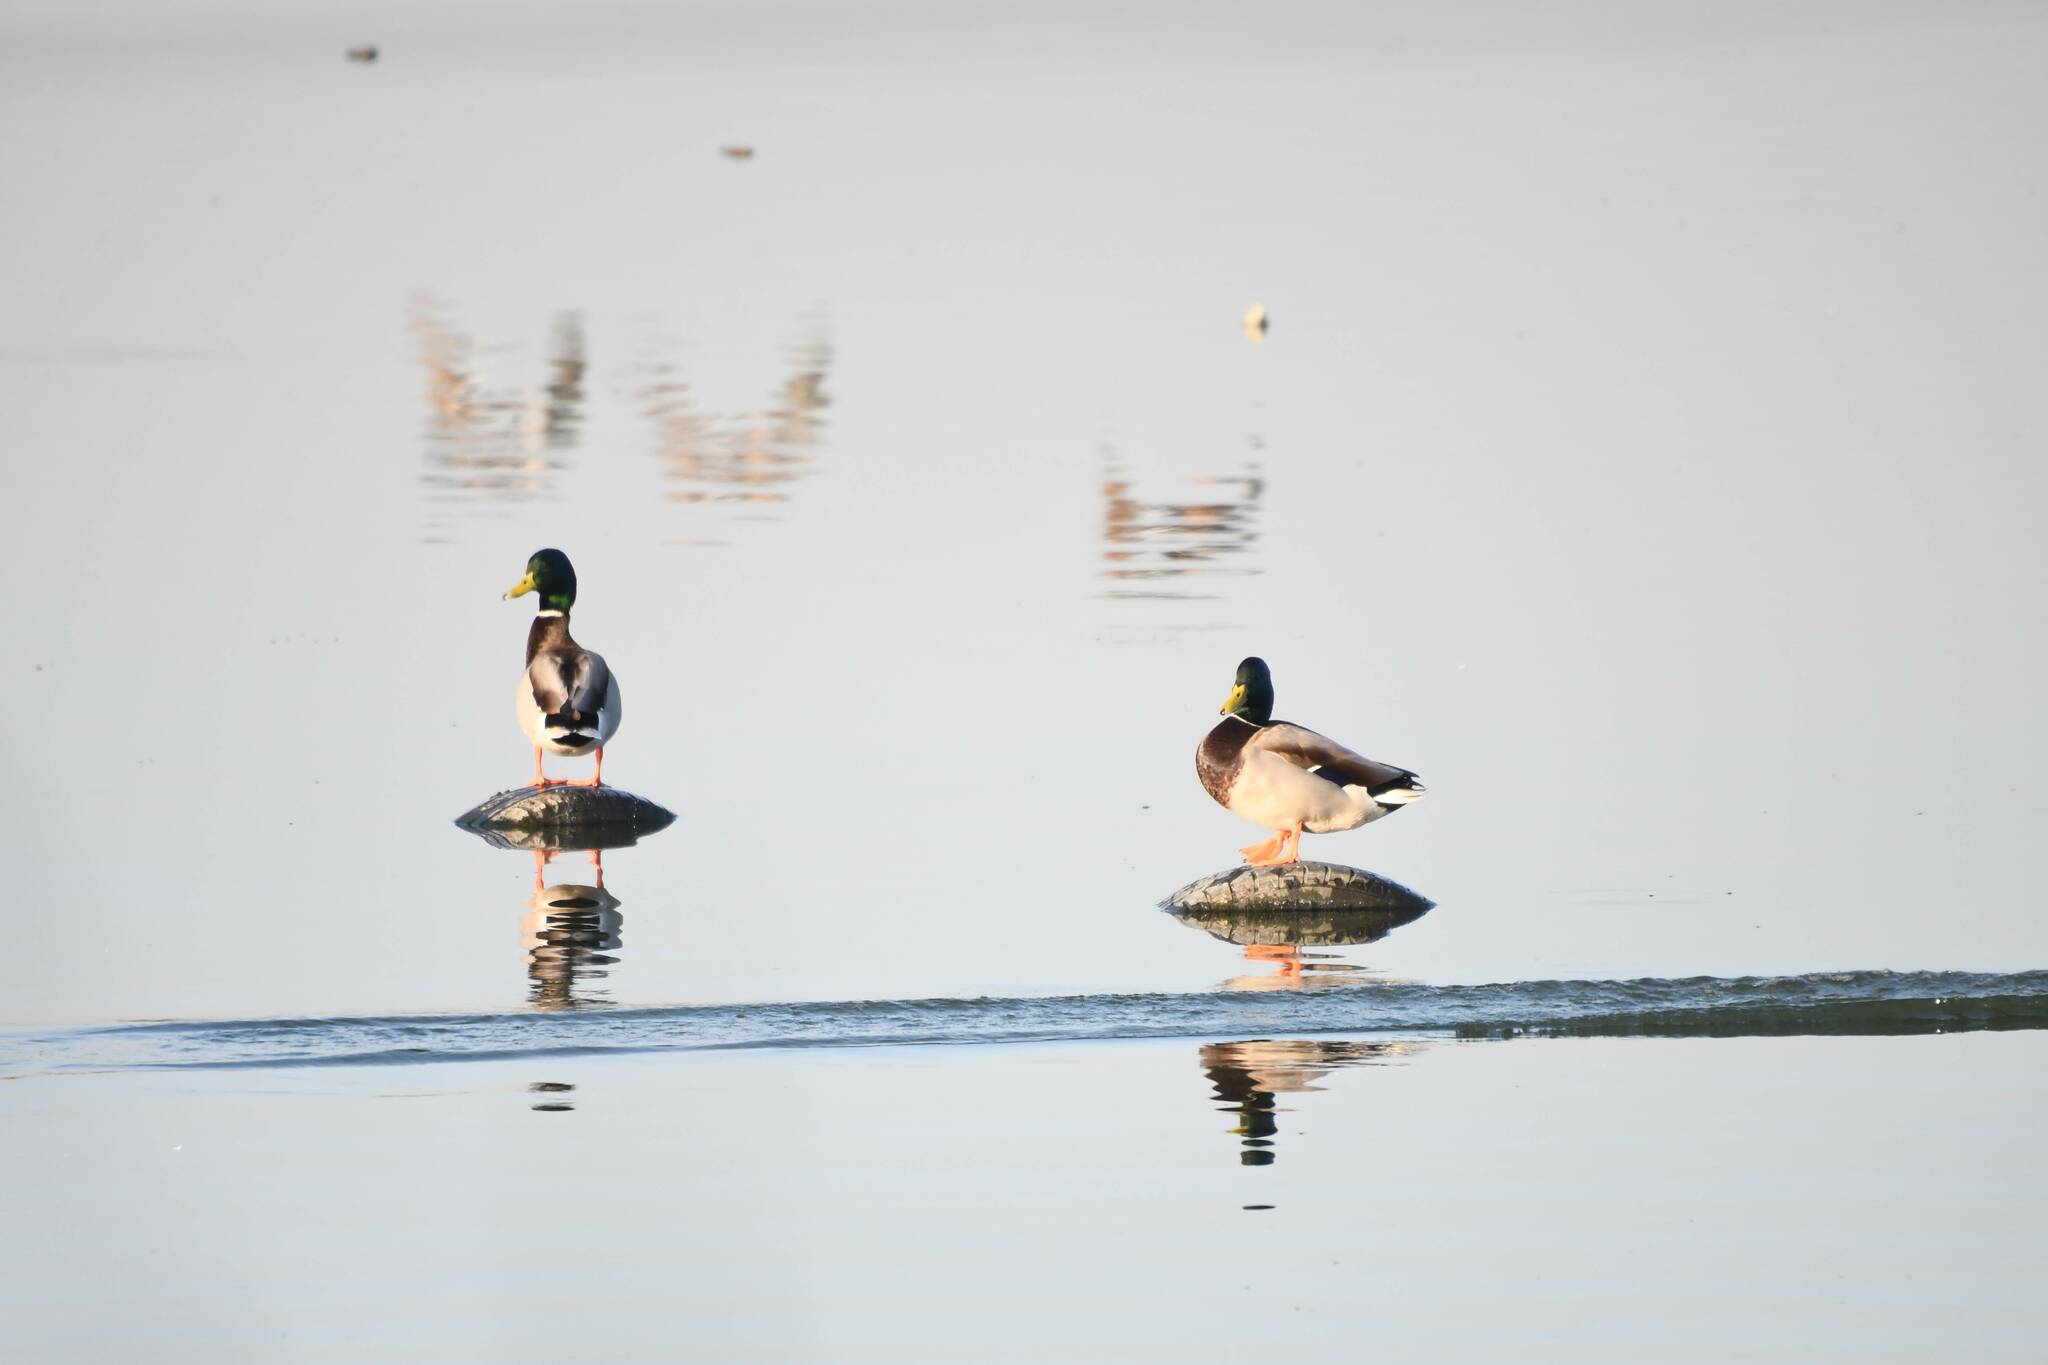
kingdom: Animalia
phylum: Chordata
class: Aves
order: Anseriformes
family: Anatidae
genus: Anas
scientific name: Anas platyrhynchos
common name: Mallard
